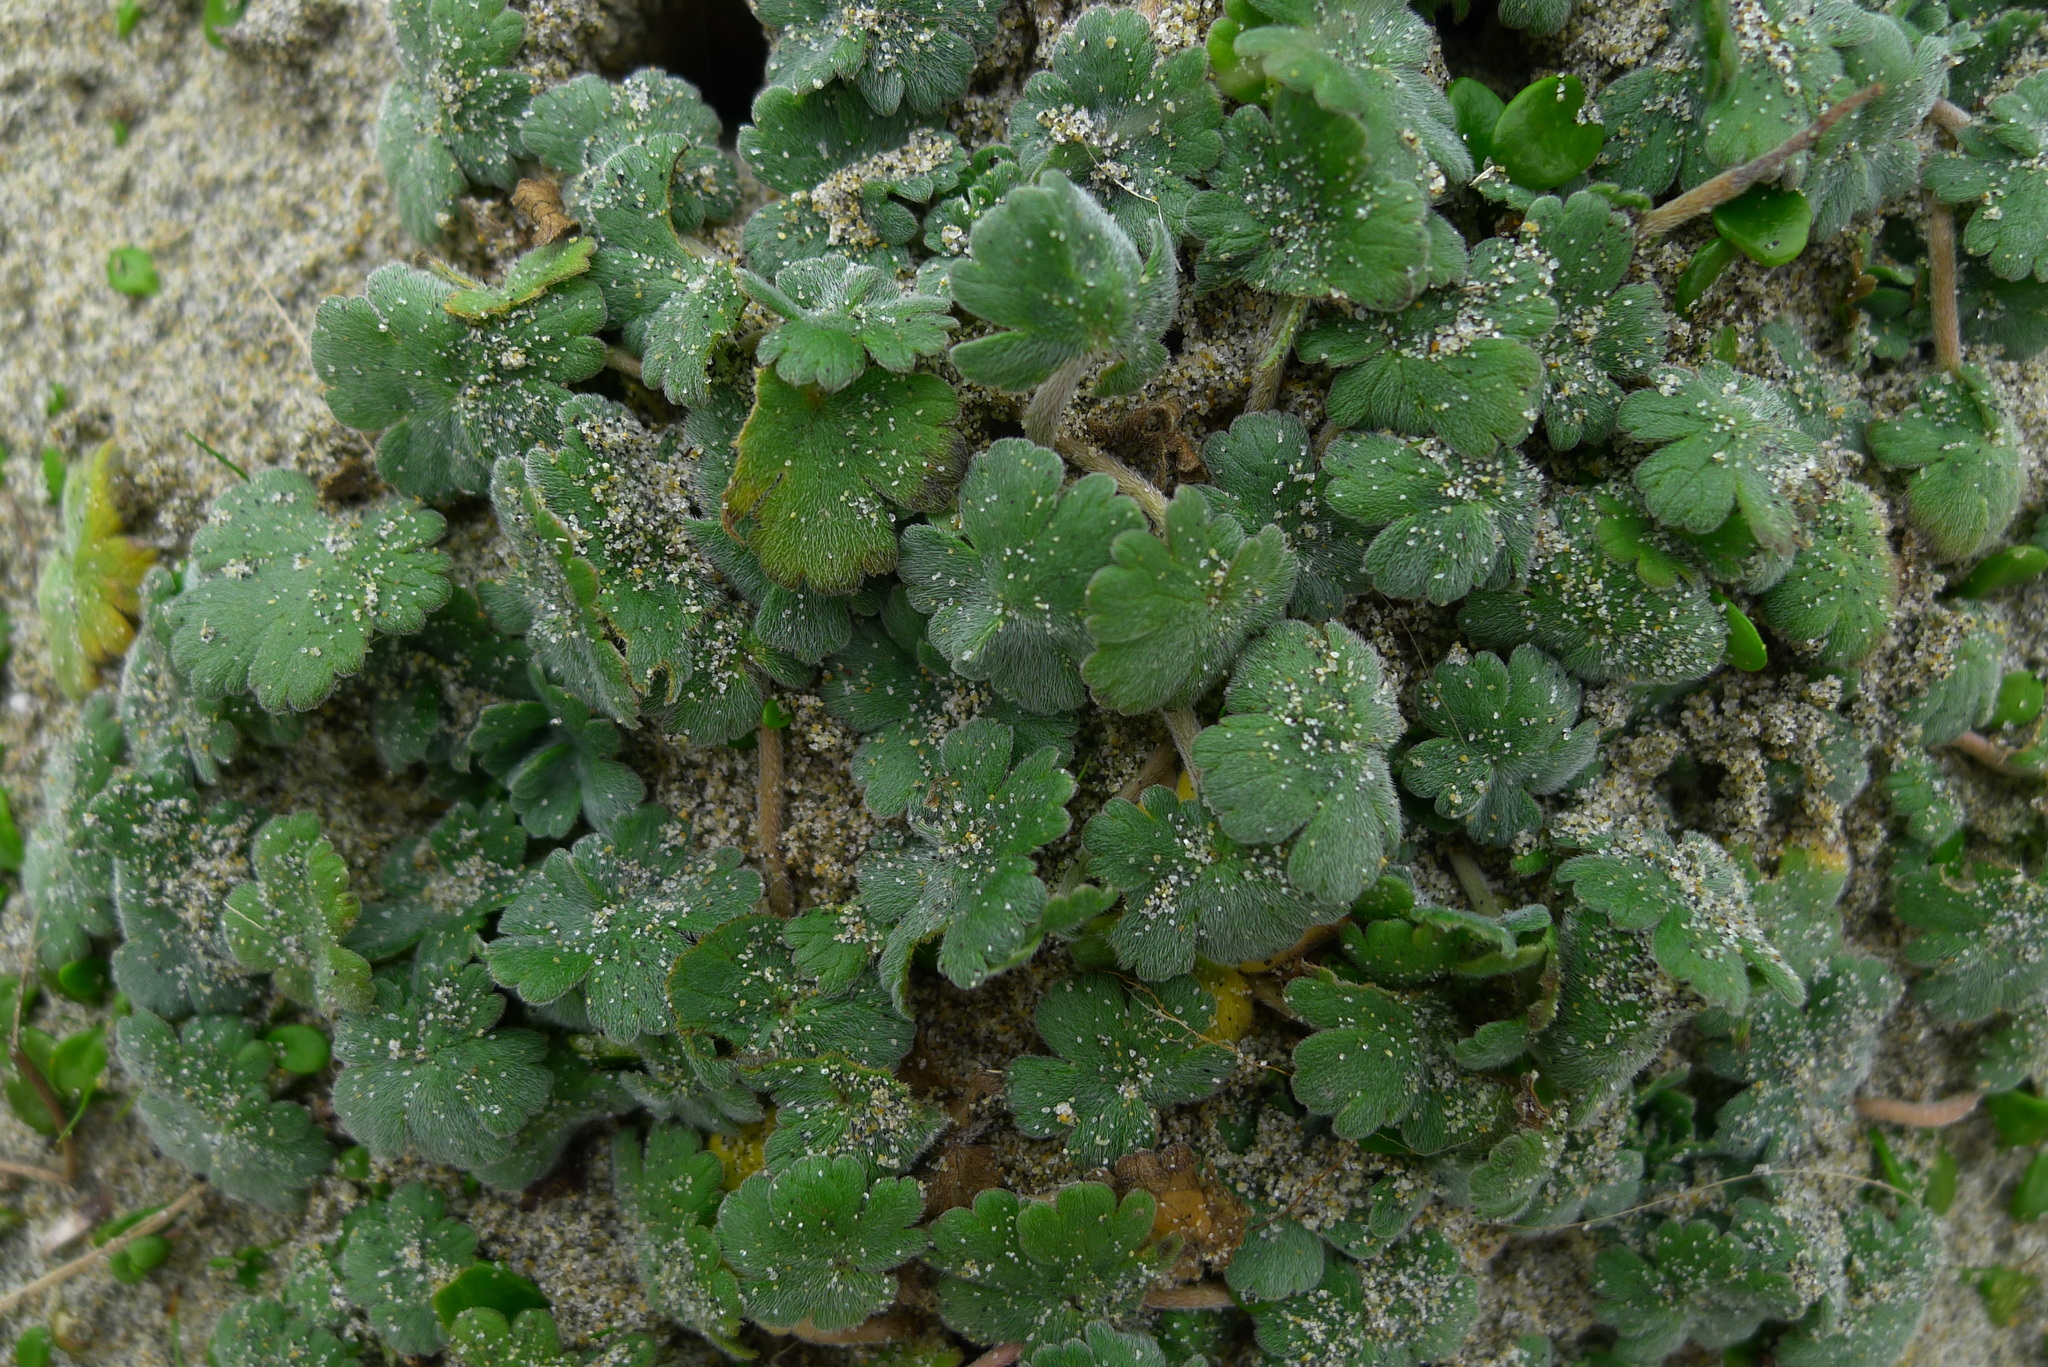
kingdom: Plantae
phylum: Tracheophyta
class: Magnoliopsida
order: Geraniales
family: Geraniaceae
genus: Geranium
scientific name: Geranium brevicaule
